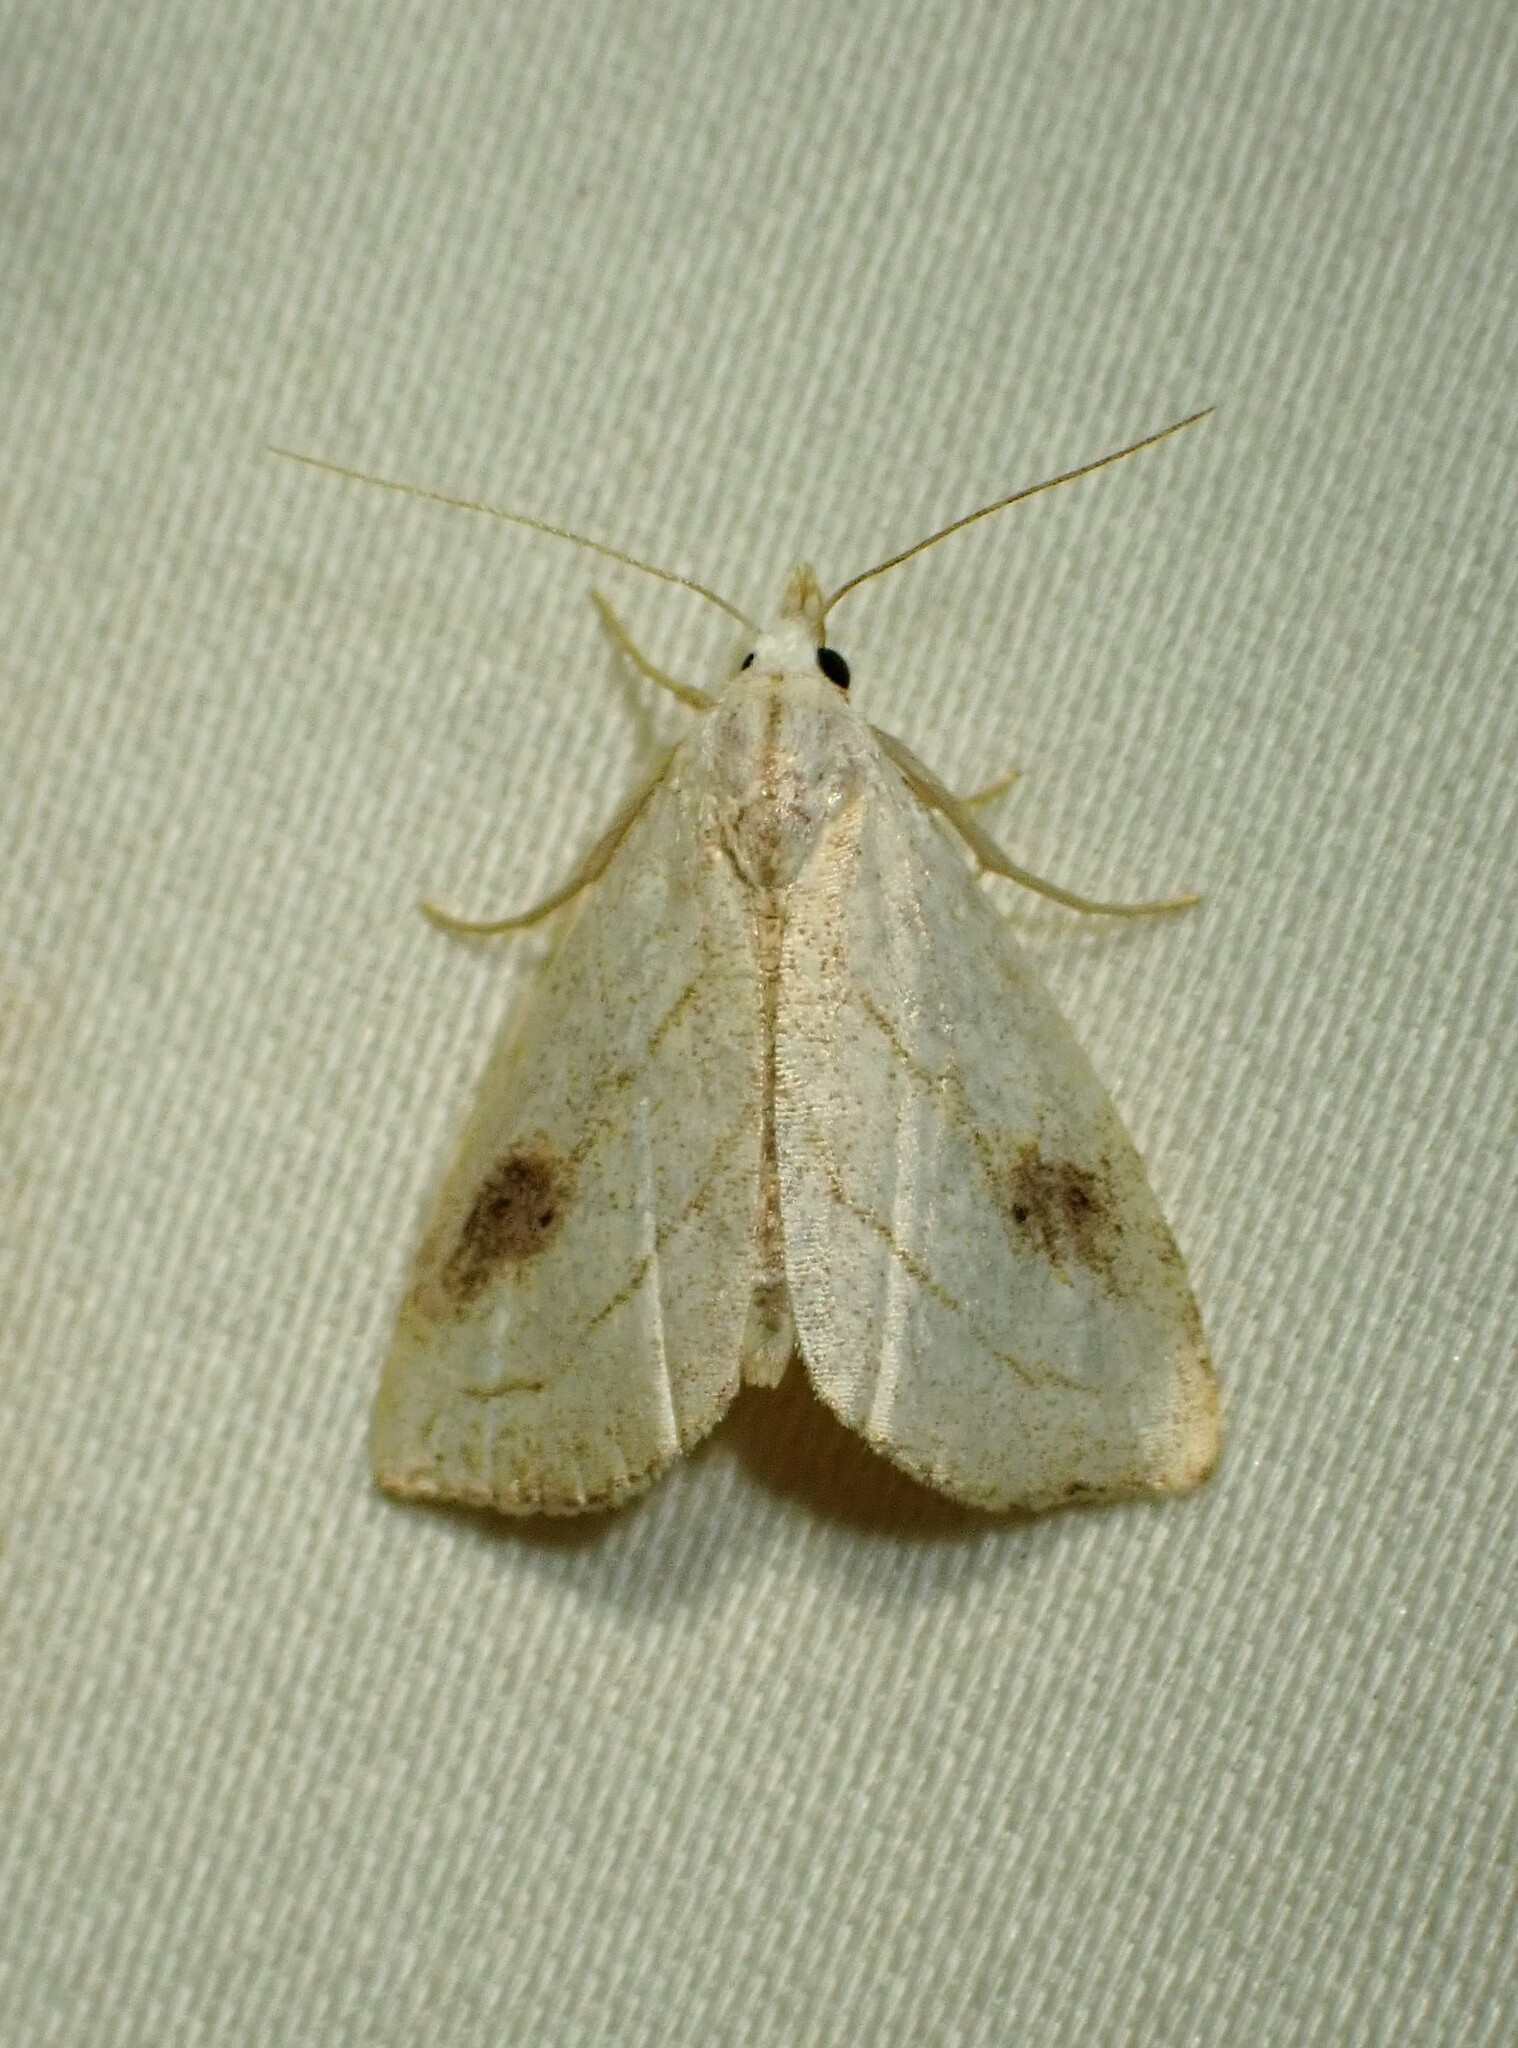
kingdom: Animalia
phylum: Arthropoda
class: Insecta
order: Lepidoptera
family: Erebidae
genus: Rivula
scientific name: Rivula propinqualis
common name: Spotted grass moth
